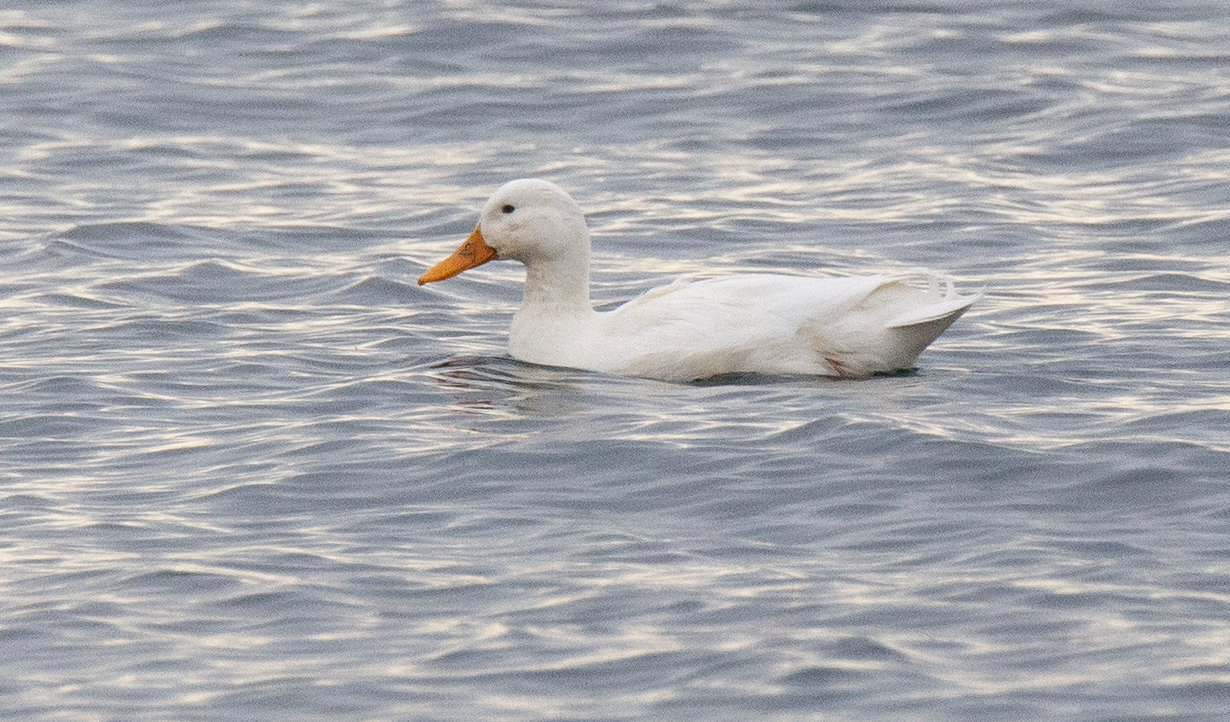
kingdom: Animalia
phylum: Chordata
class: Aves
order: Anseriformes
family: Anatidae
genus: Anas
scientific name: Anas platyrhynchos
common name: Mallard
